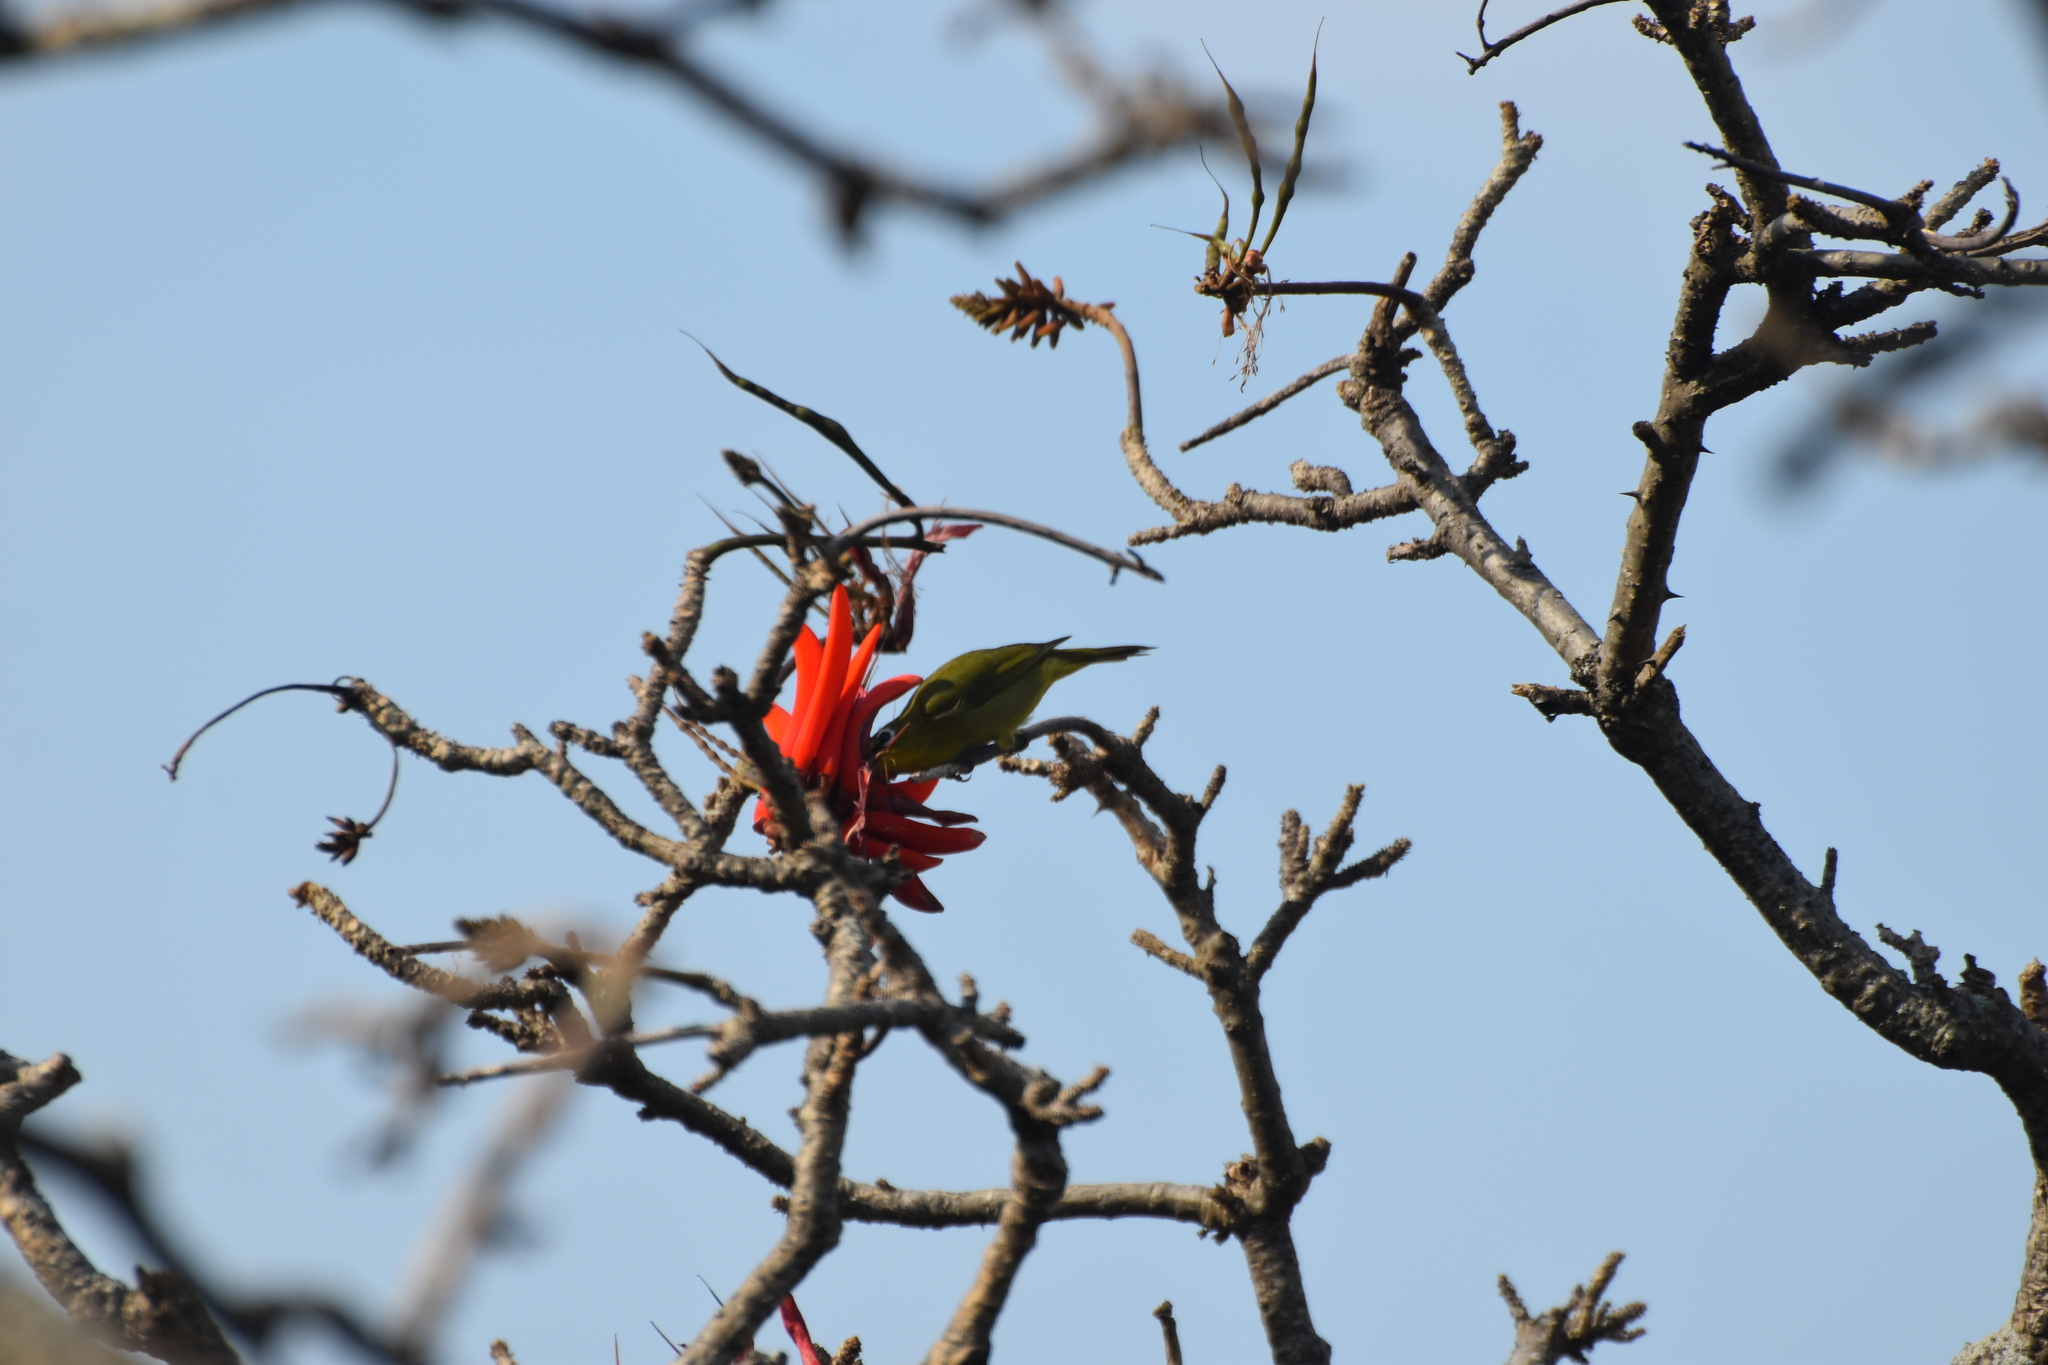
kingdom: Animalia
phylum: Chordata
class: Aves
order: Passeriformes
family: Zosteropidae
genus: Zosterops
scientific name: Zosterops virens
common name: Cape white-eye
